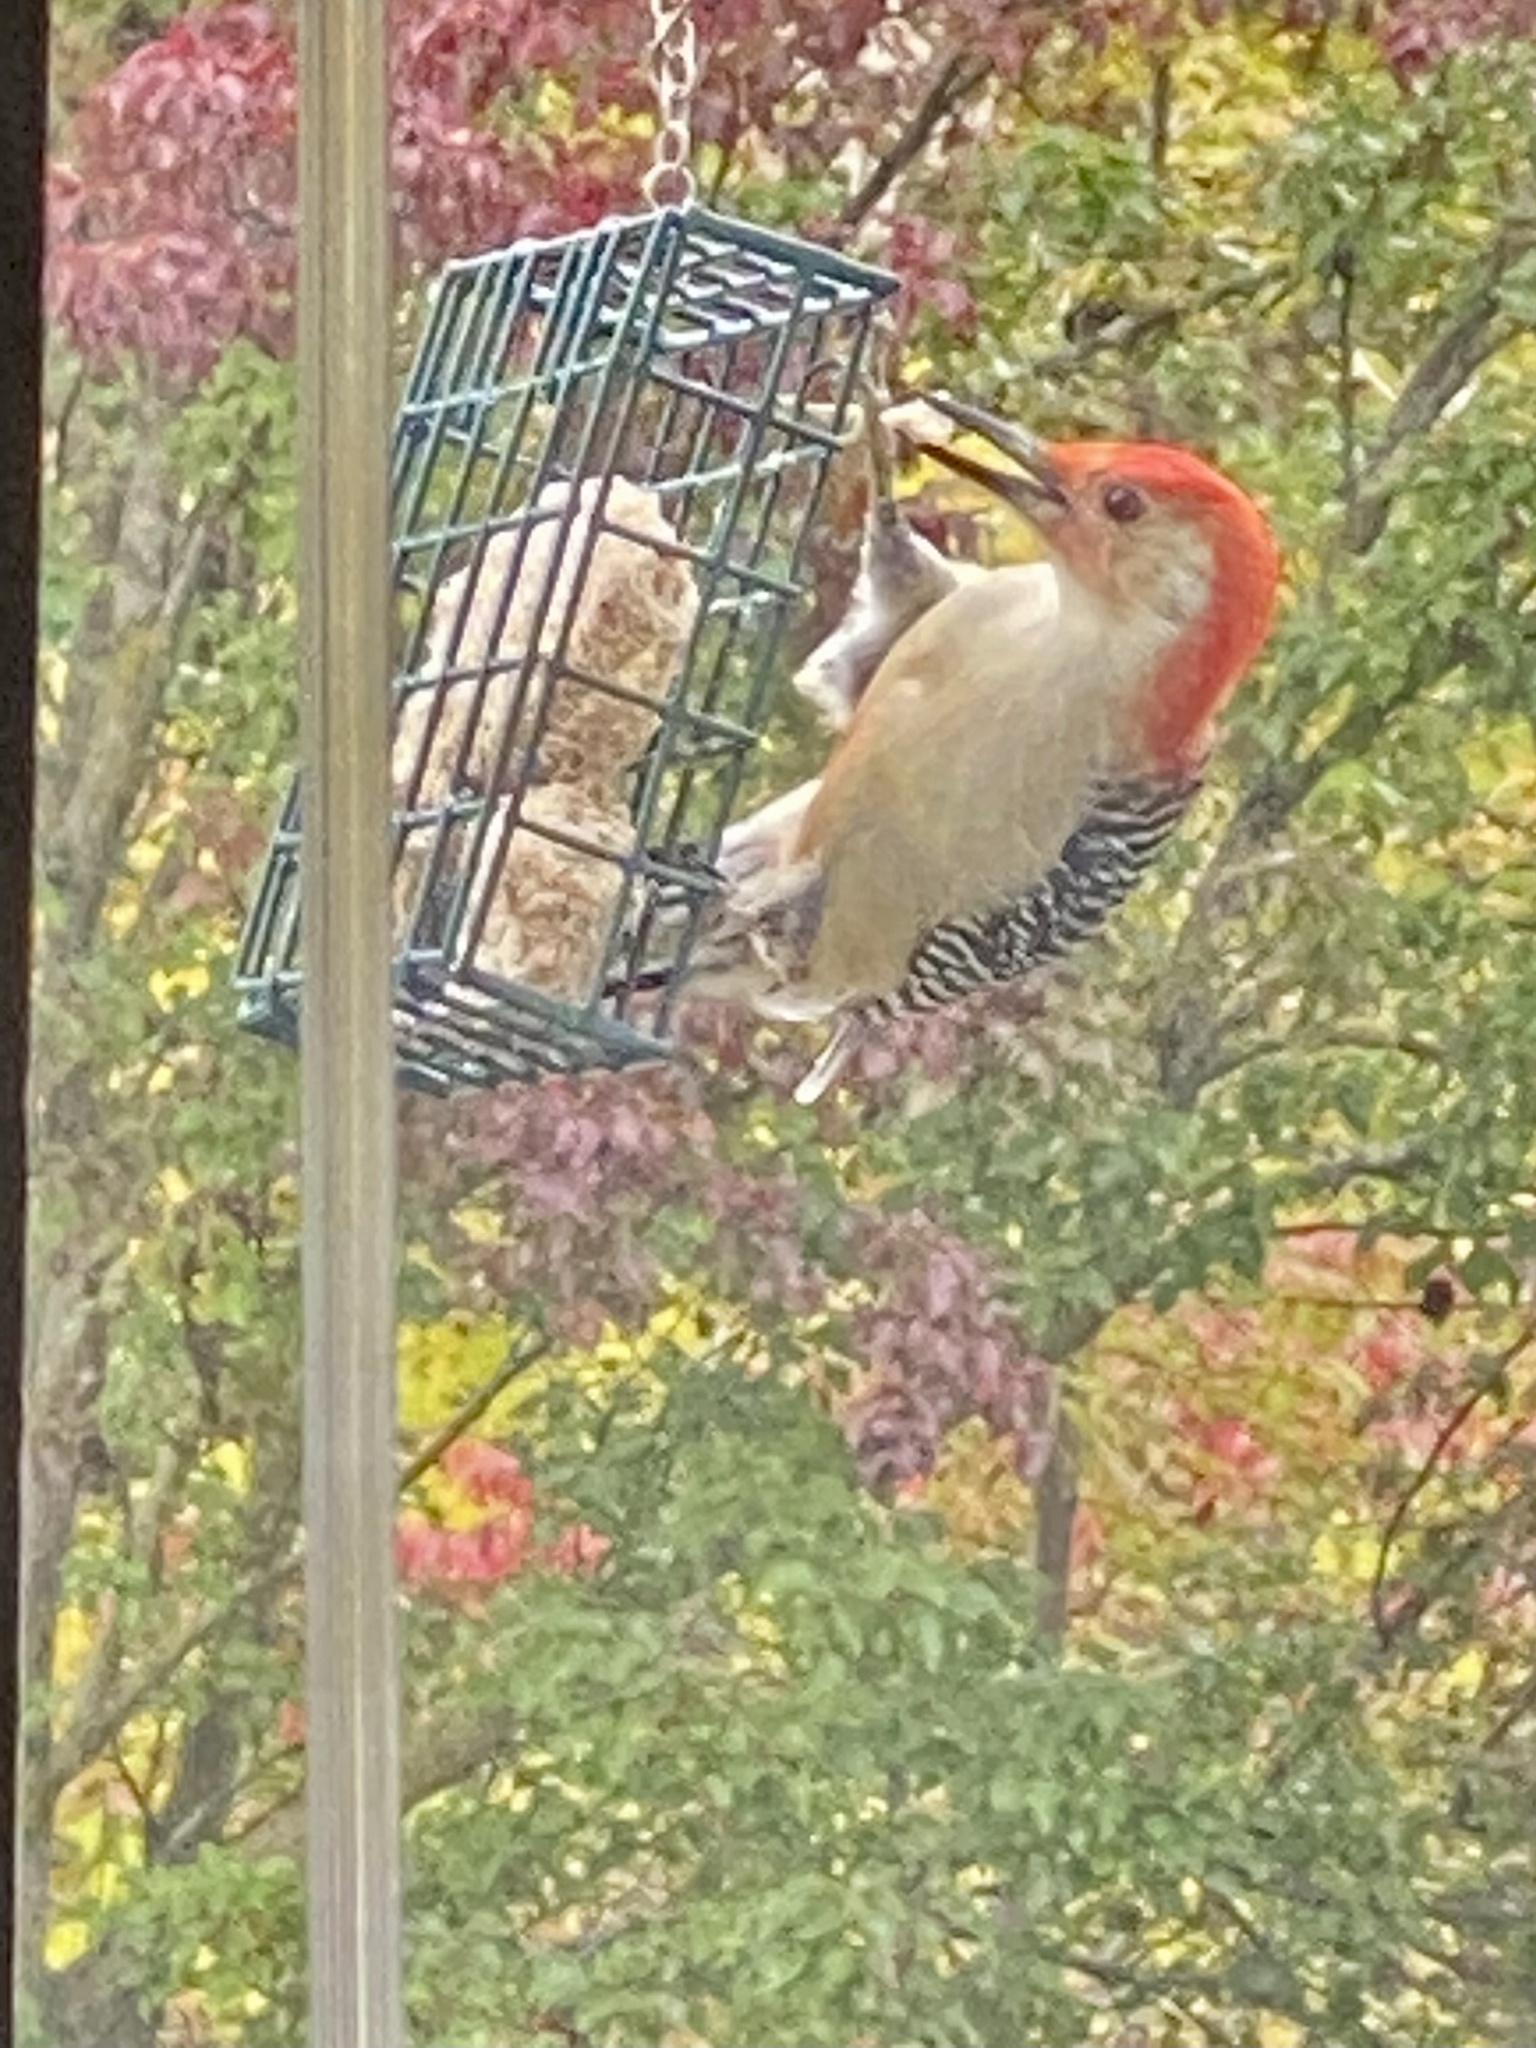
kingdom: Animalia
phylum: Chordata
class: Aves
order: Piciformes
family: Picidae
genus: Melanerpes
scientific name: Melanerpes carolinus
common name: Red-bellied woodpecker
